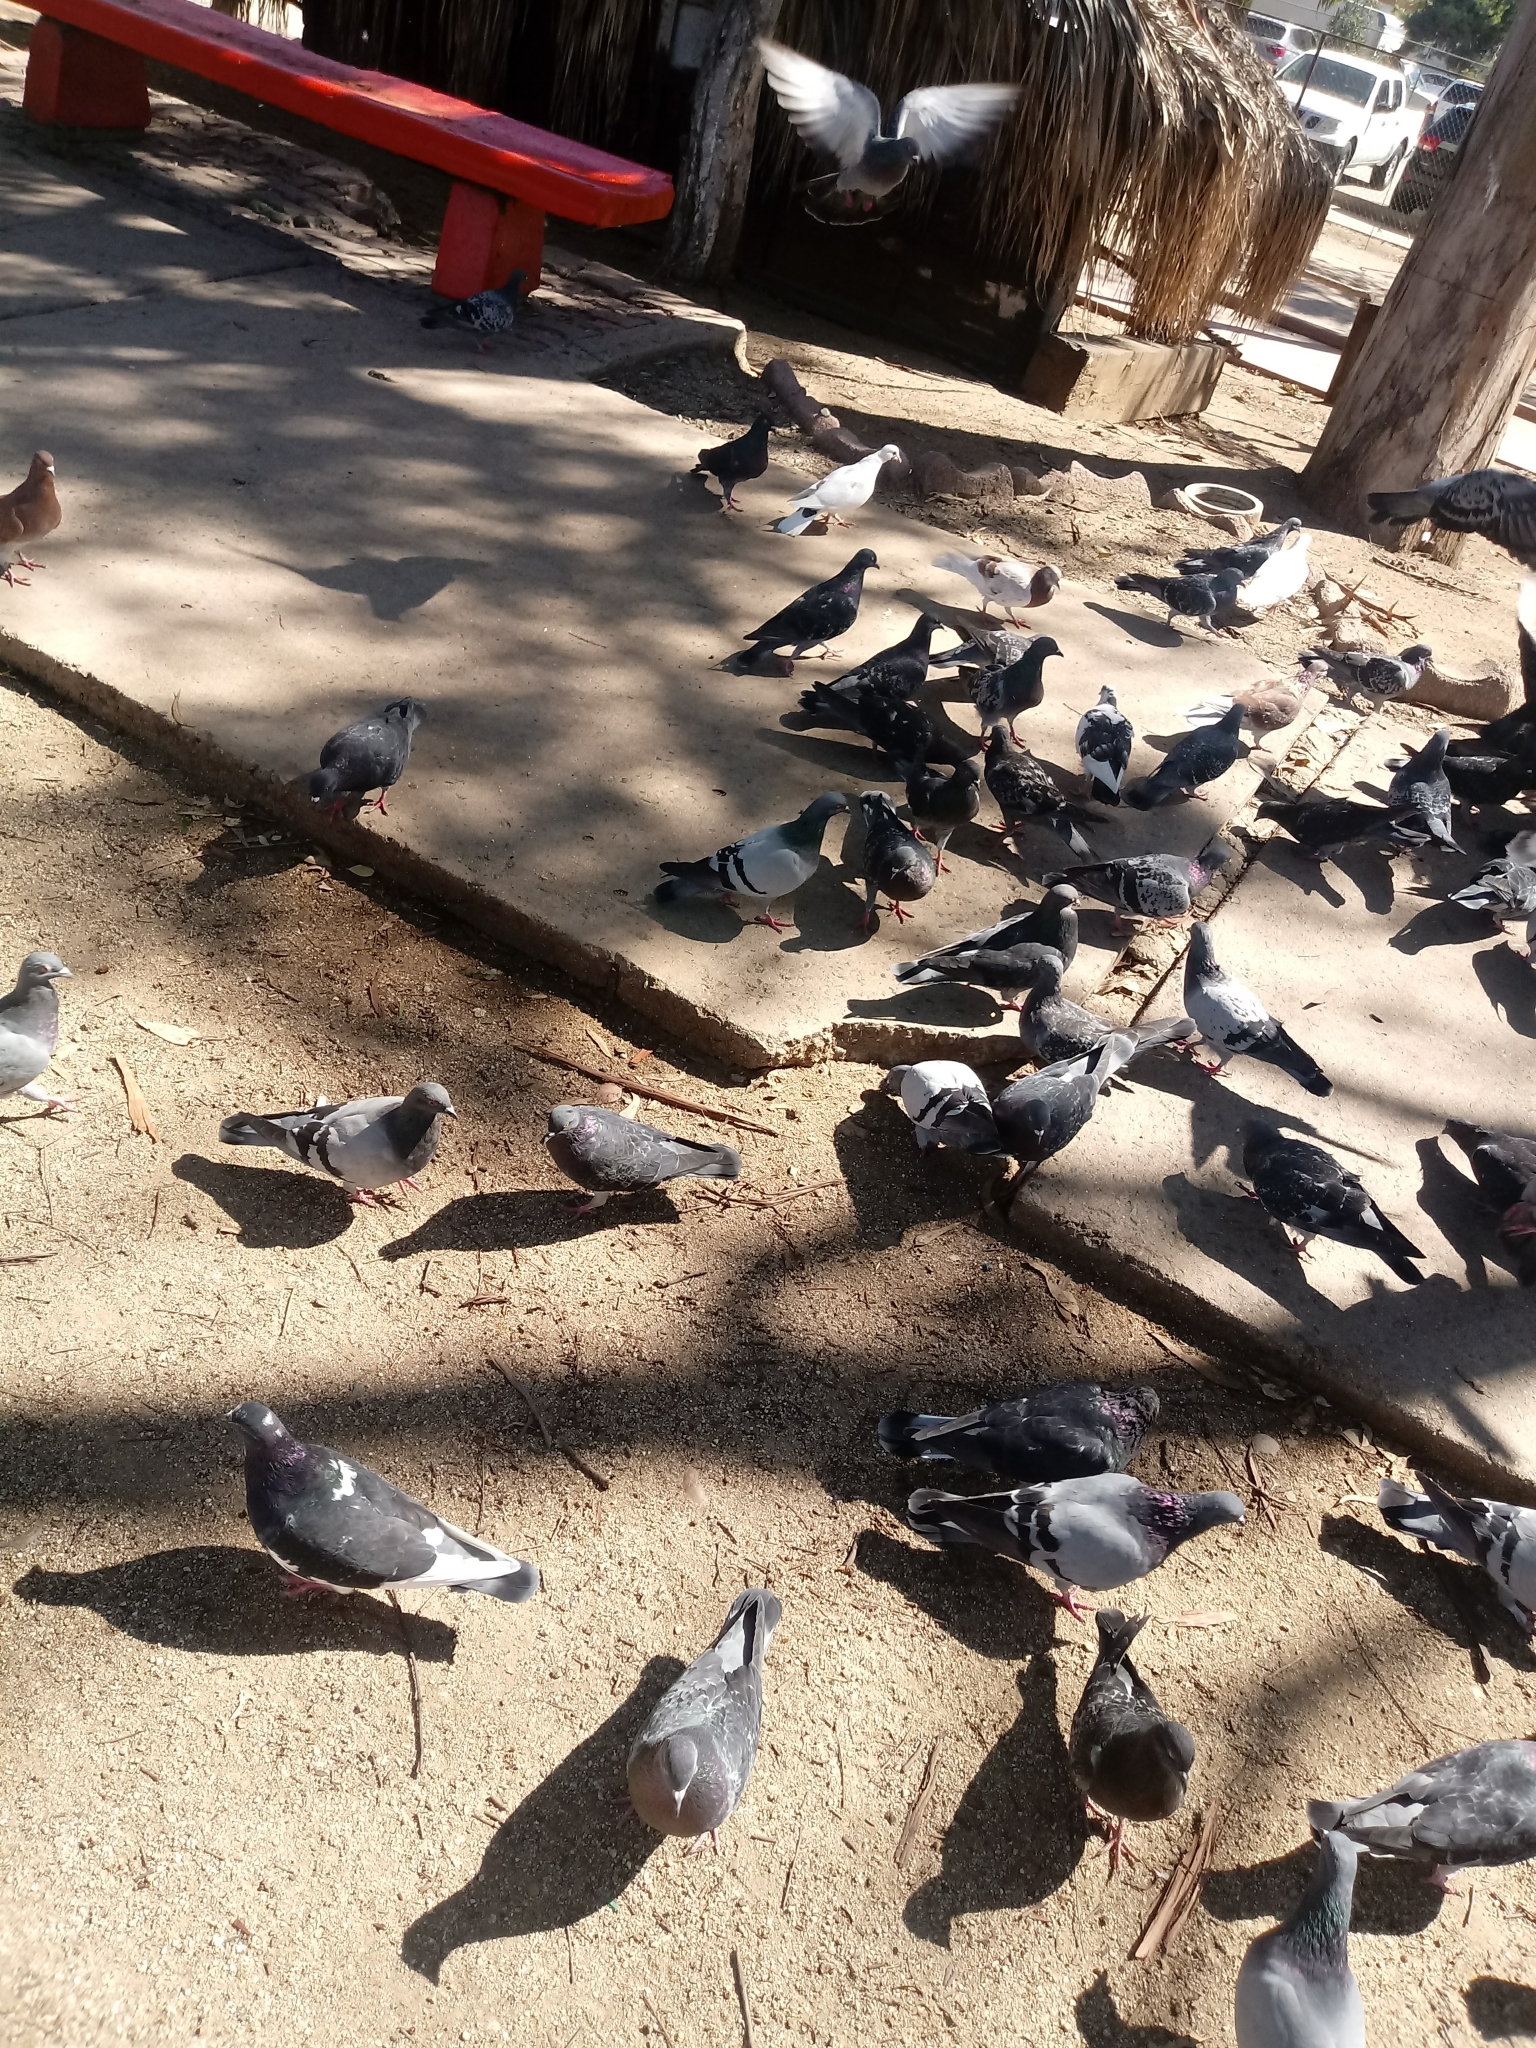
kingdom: Animalia
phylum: Chordata
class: Aves
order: Columbiformes
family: Columbidae
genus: Columba
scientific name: Columba livia
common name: Rock pigeon
